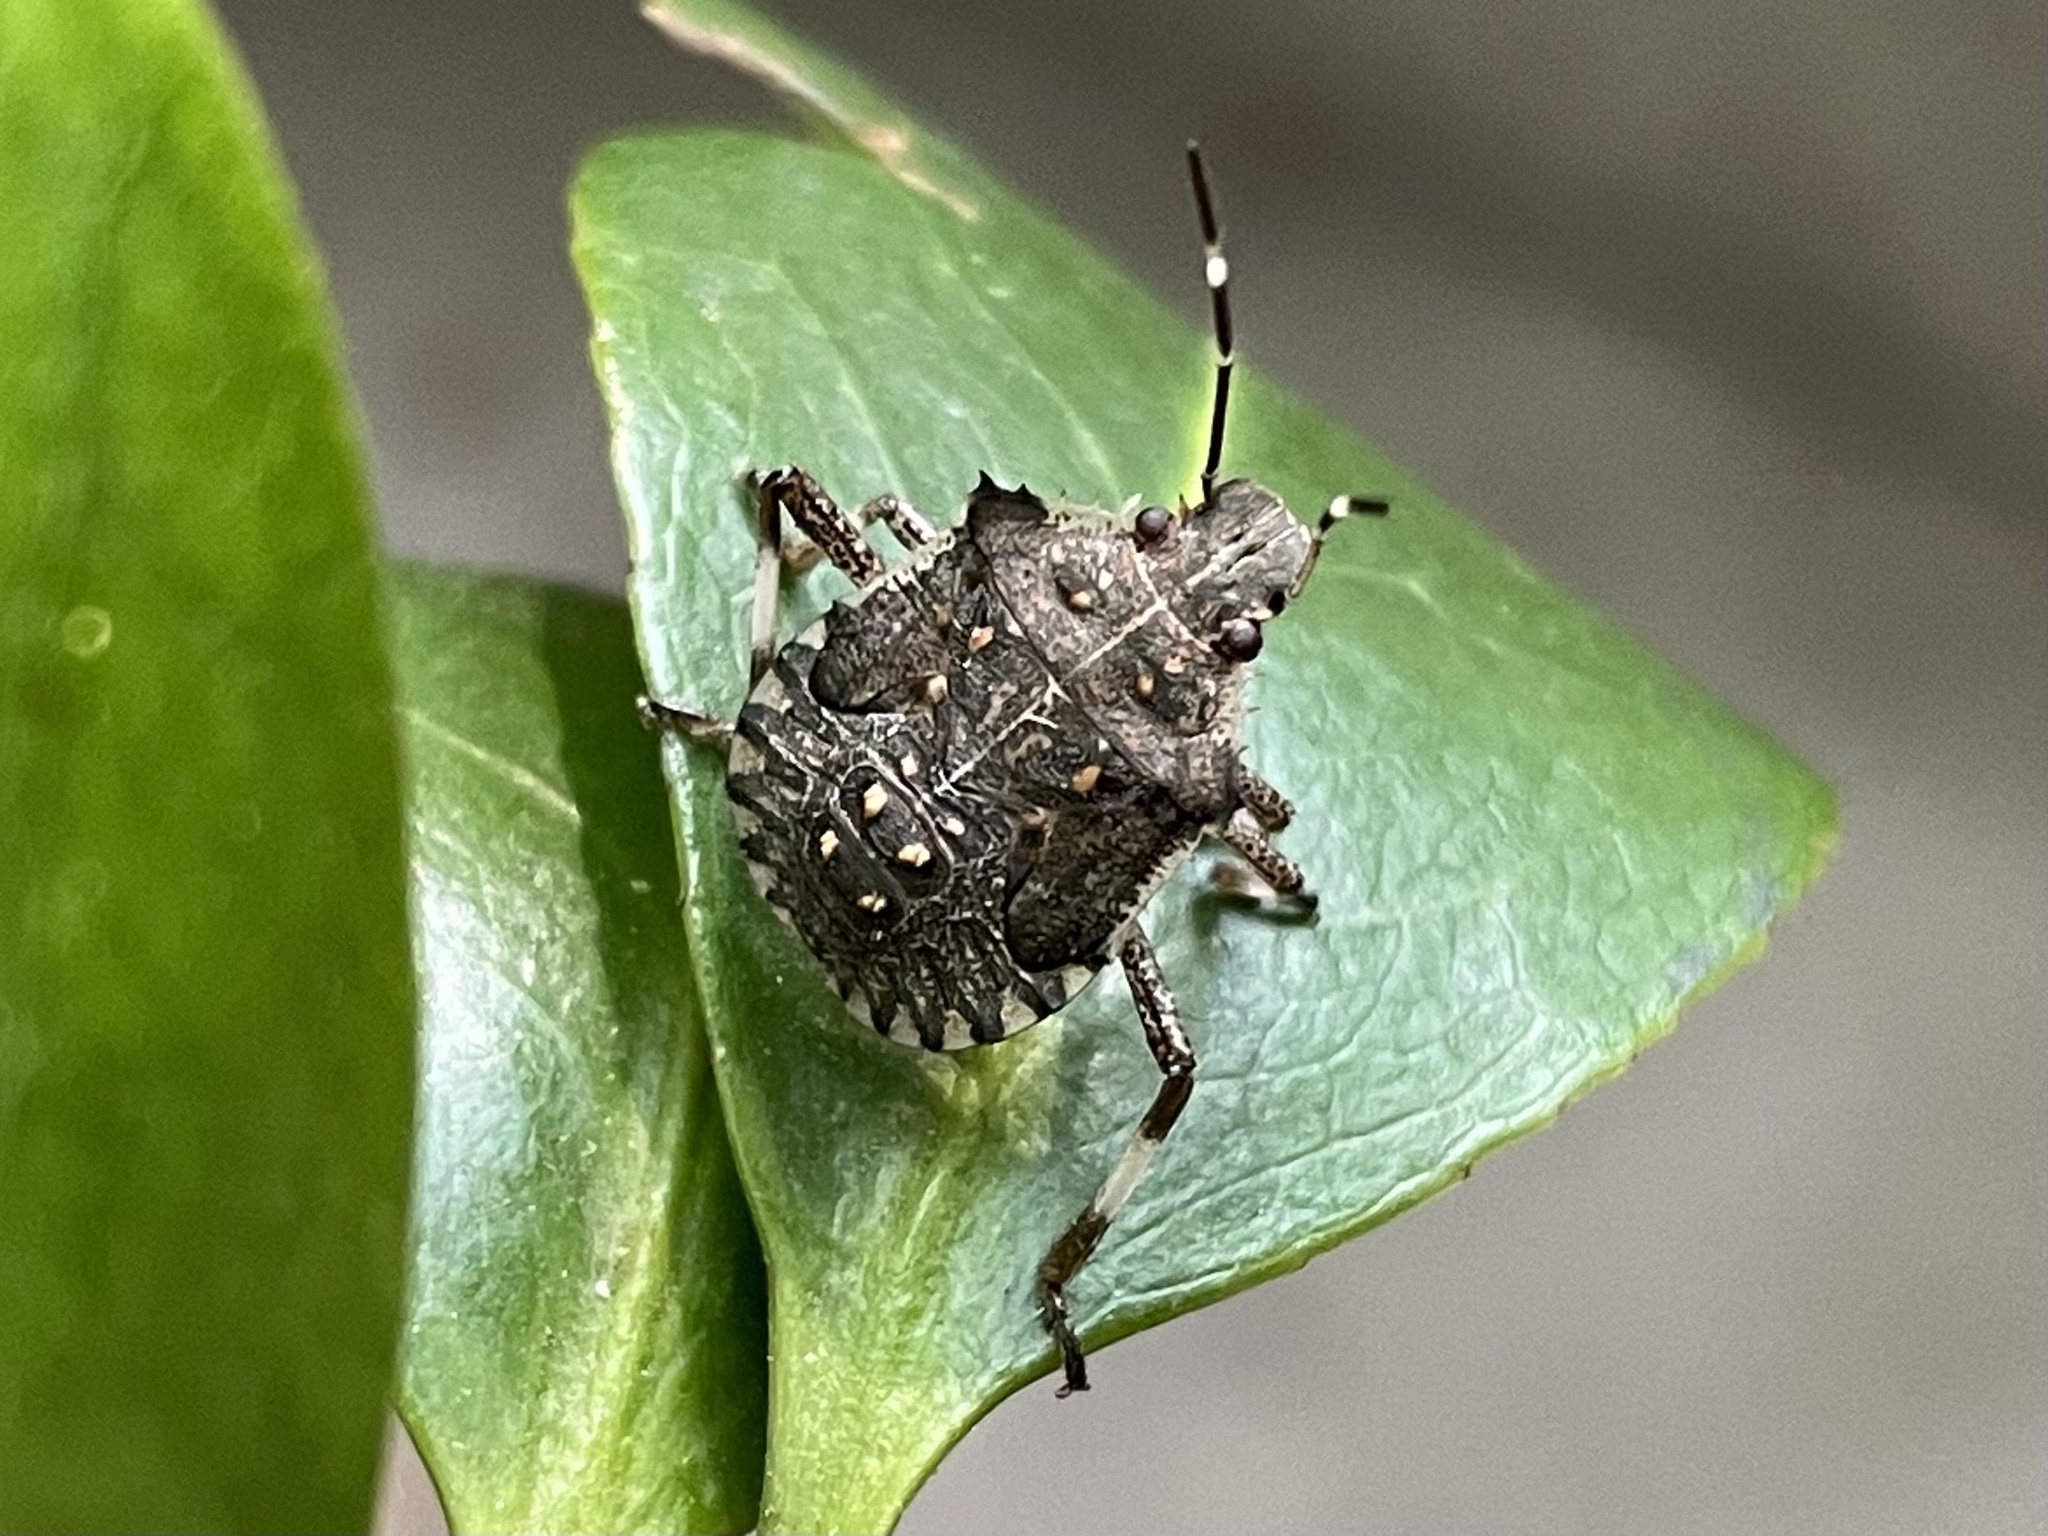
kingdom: Animalia
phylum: Arthropoda
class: Insecta
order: Hemiptera
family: Pentatomidae
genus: Halyomorpha
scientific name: Halyomorpha halys
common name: Brown marmorated stink bug
